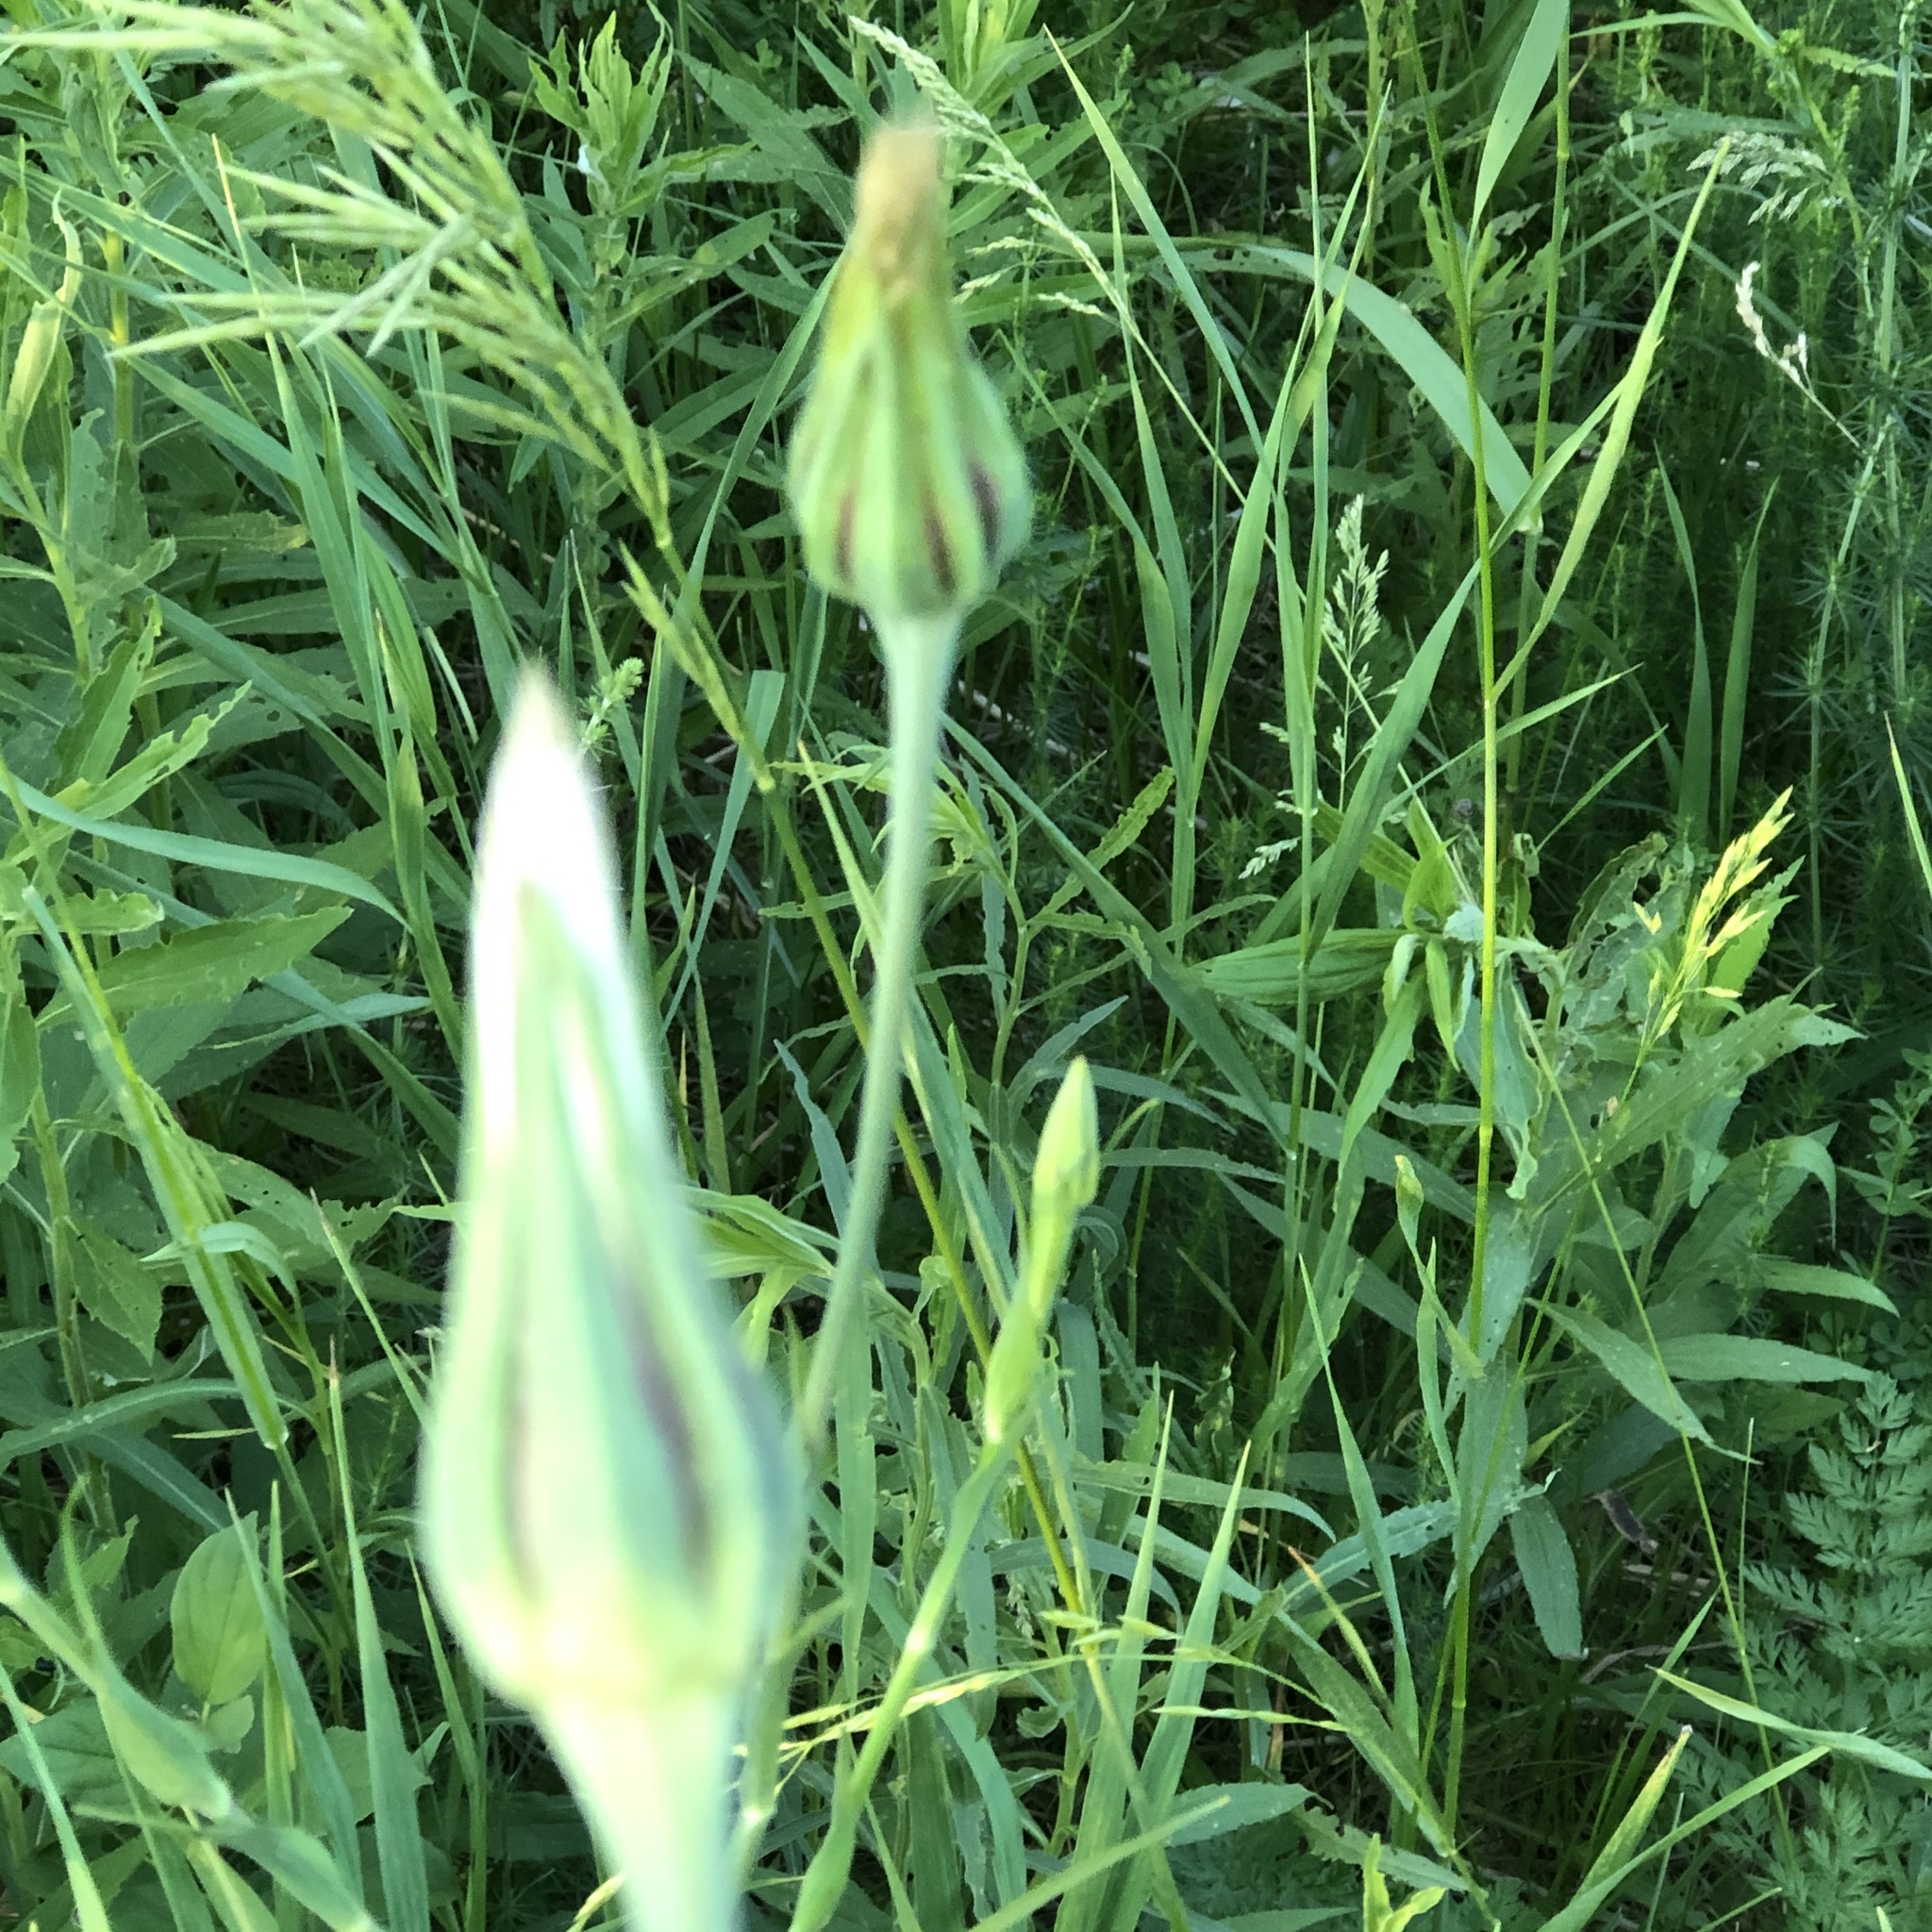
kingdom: Plantae
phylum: Tracheophyta
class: Magnoliopsida
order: Asterales
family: Asteraceae
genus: Tragopogon
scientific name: Tragopogon pratensis
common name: Goat's-beard
